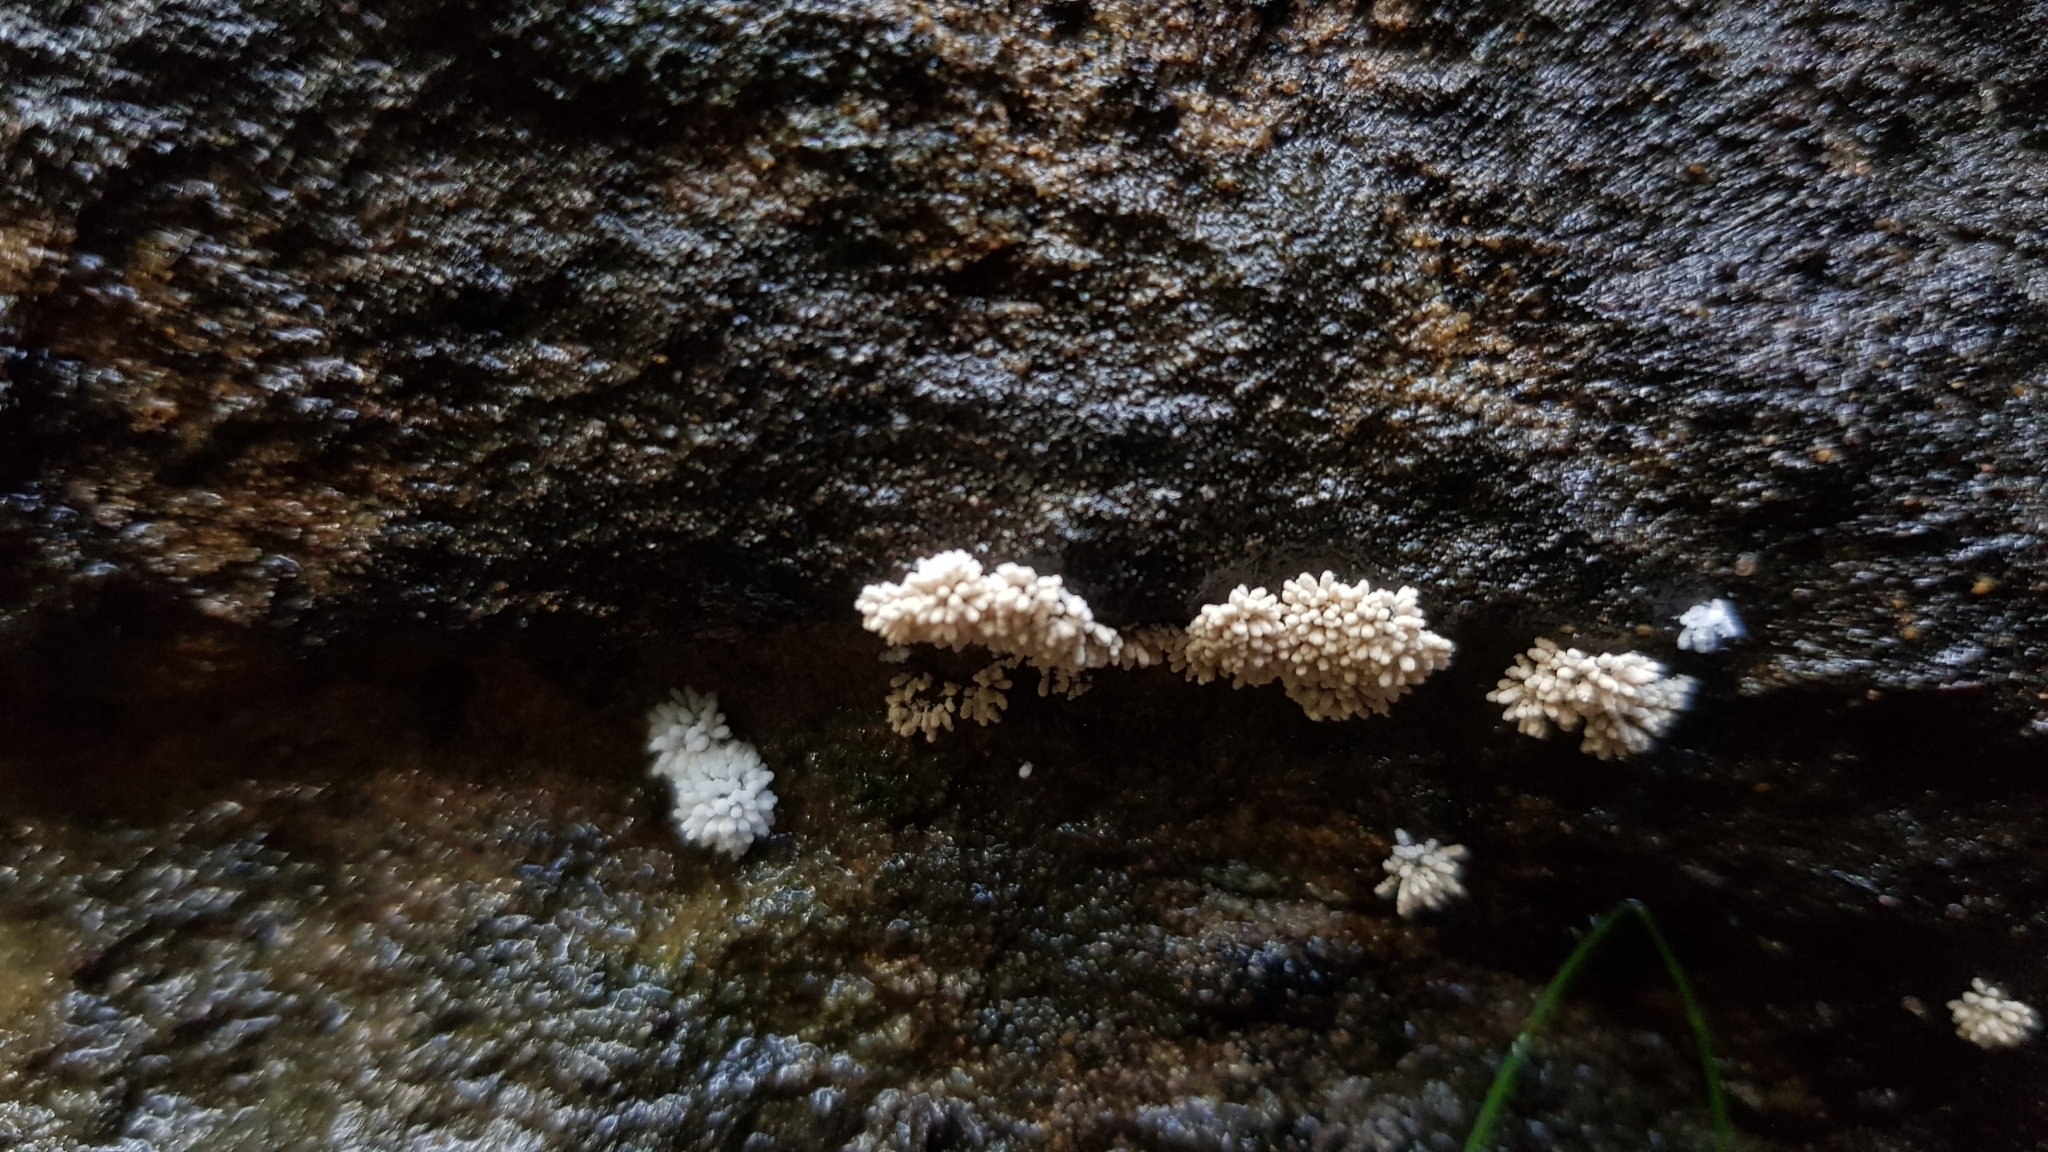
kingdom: Fungi
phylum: Ascomycota
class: Pezizomycetes
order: Pezizales
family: Pezizaceae
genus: Chromelosporiopsis
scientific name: Chromelosporiopsis carnea
